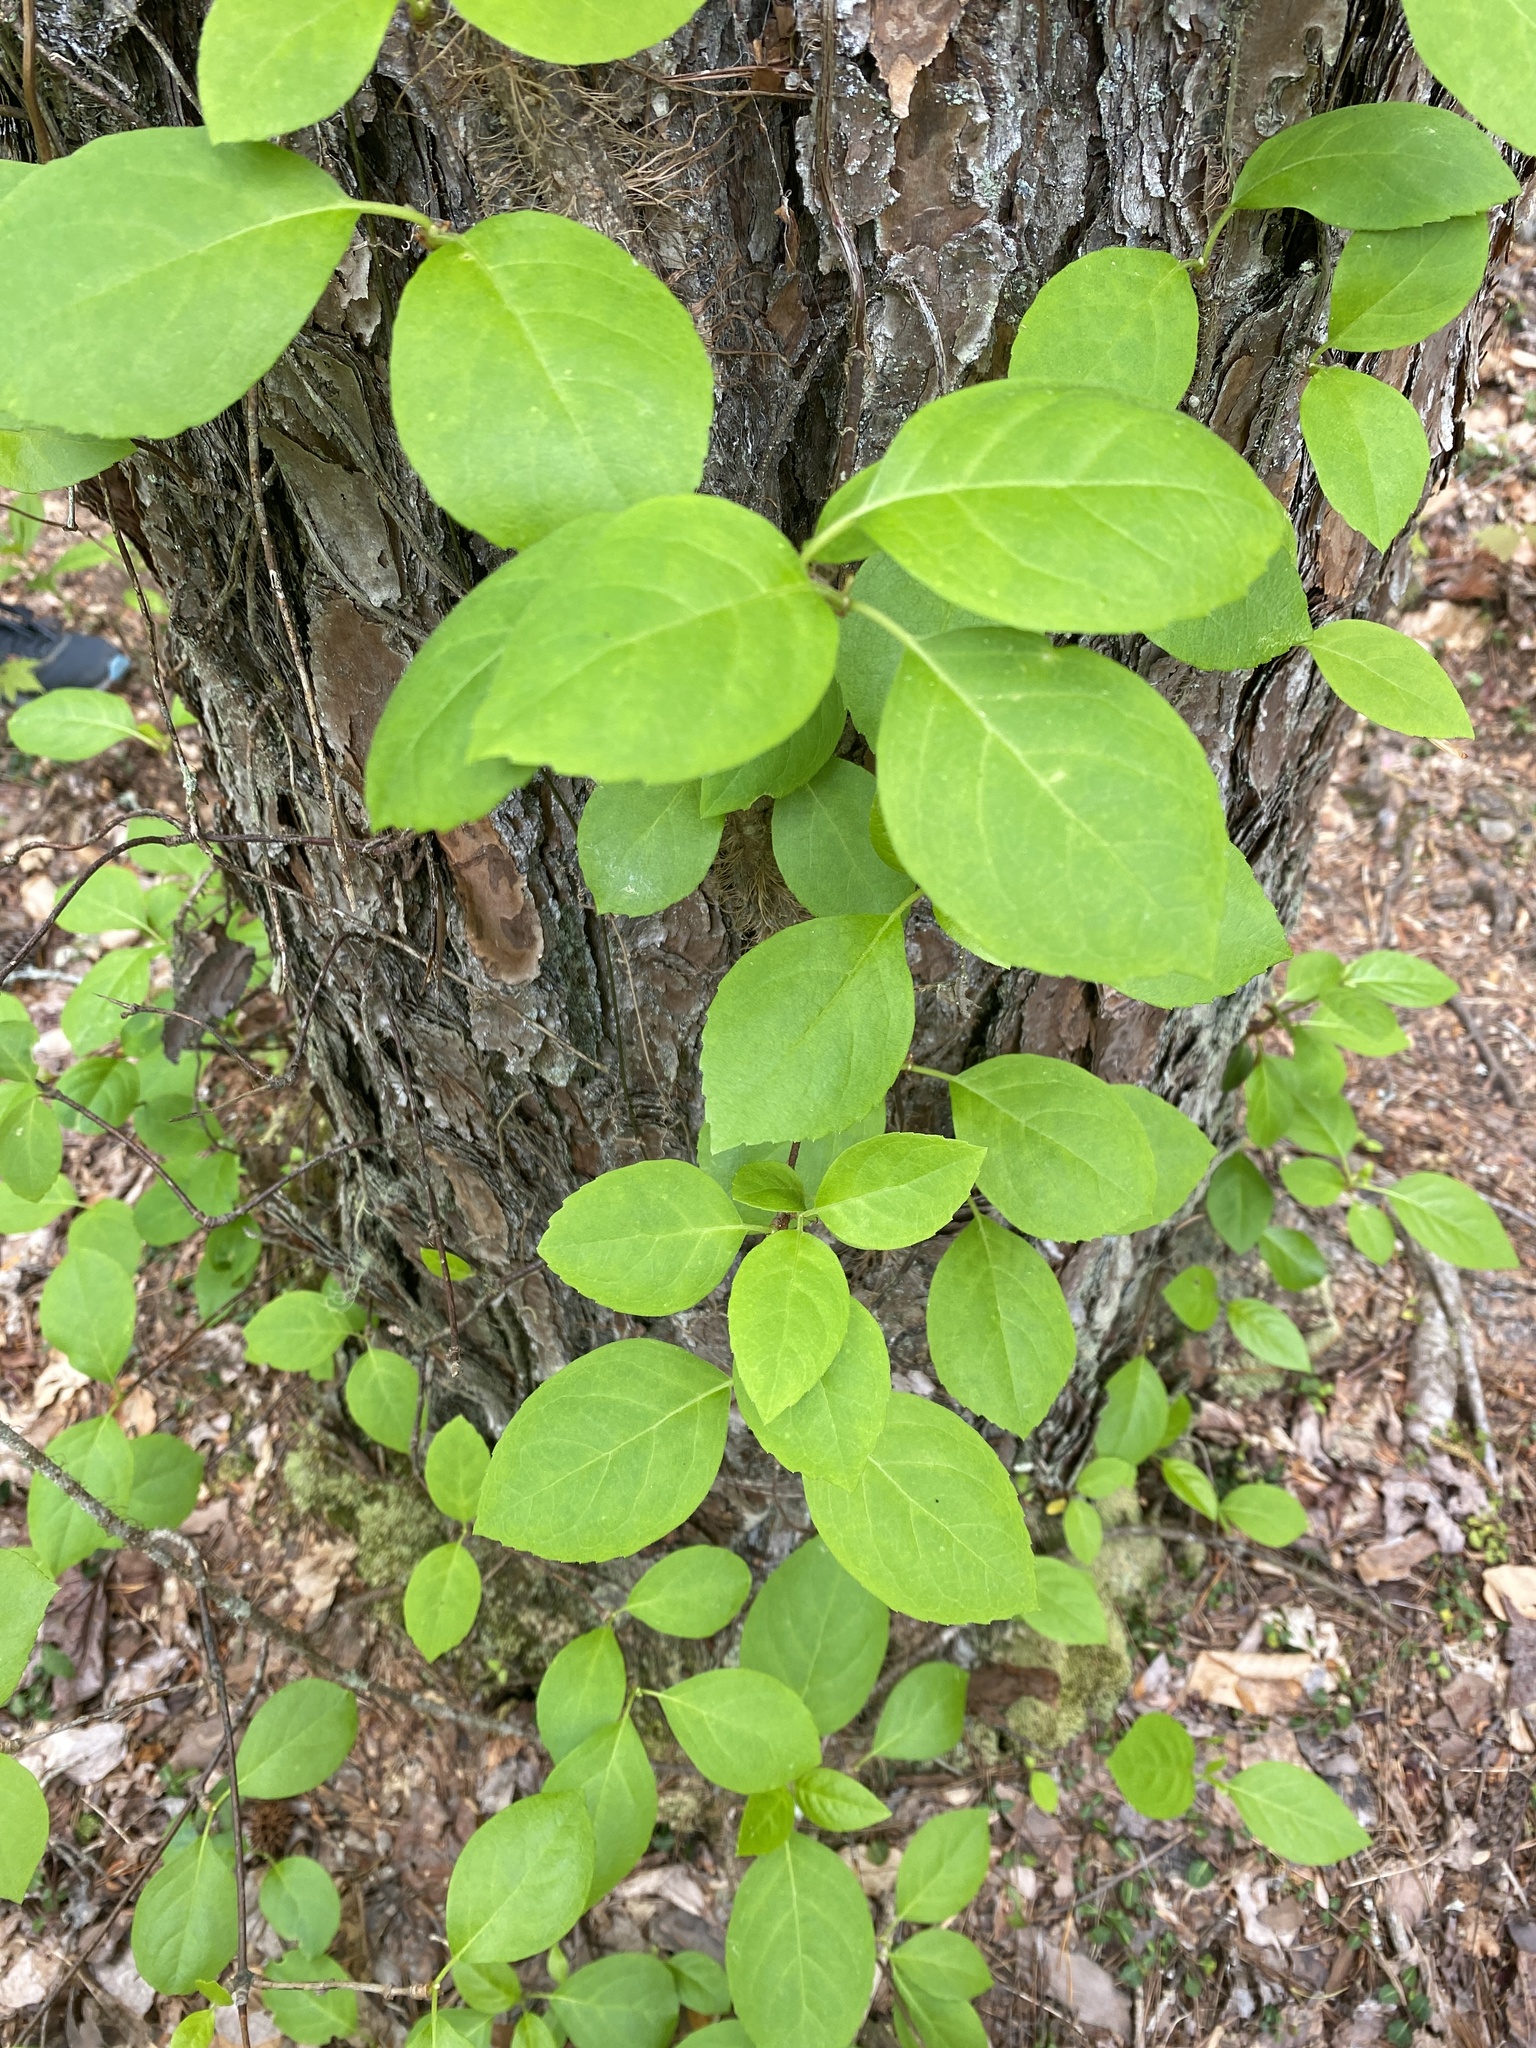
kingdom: Plantae
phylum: Tracheophyta
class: Magnoliopsida
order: Cornales
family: Hydrangeaceae
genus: Hydrangea
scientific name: Hydrangea barbara
